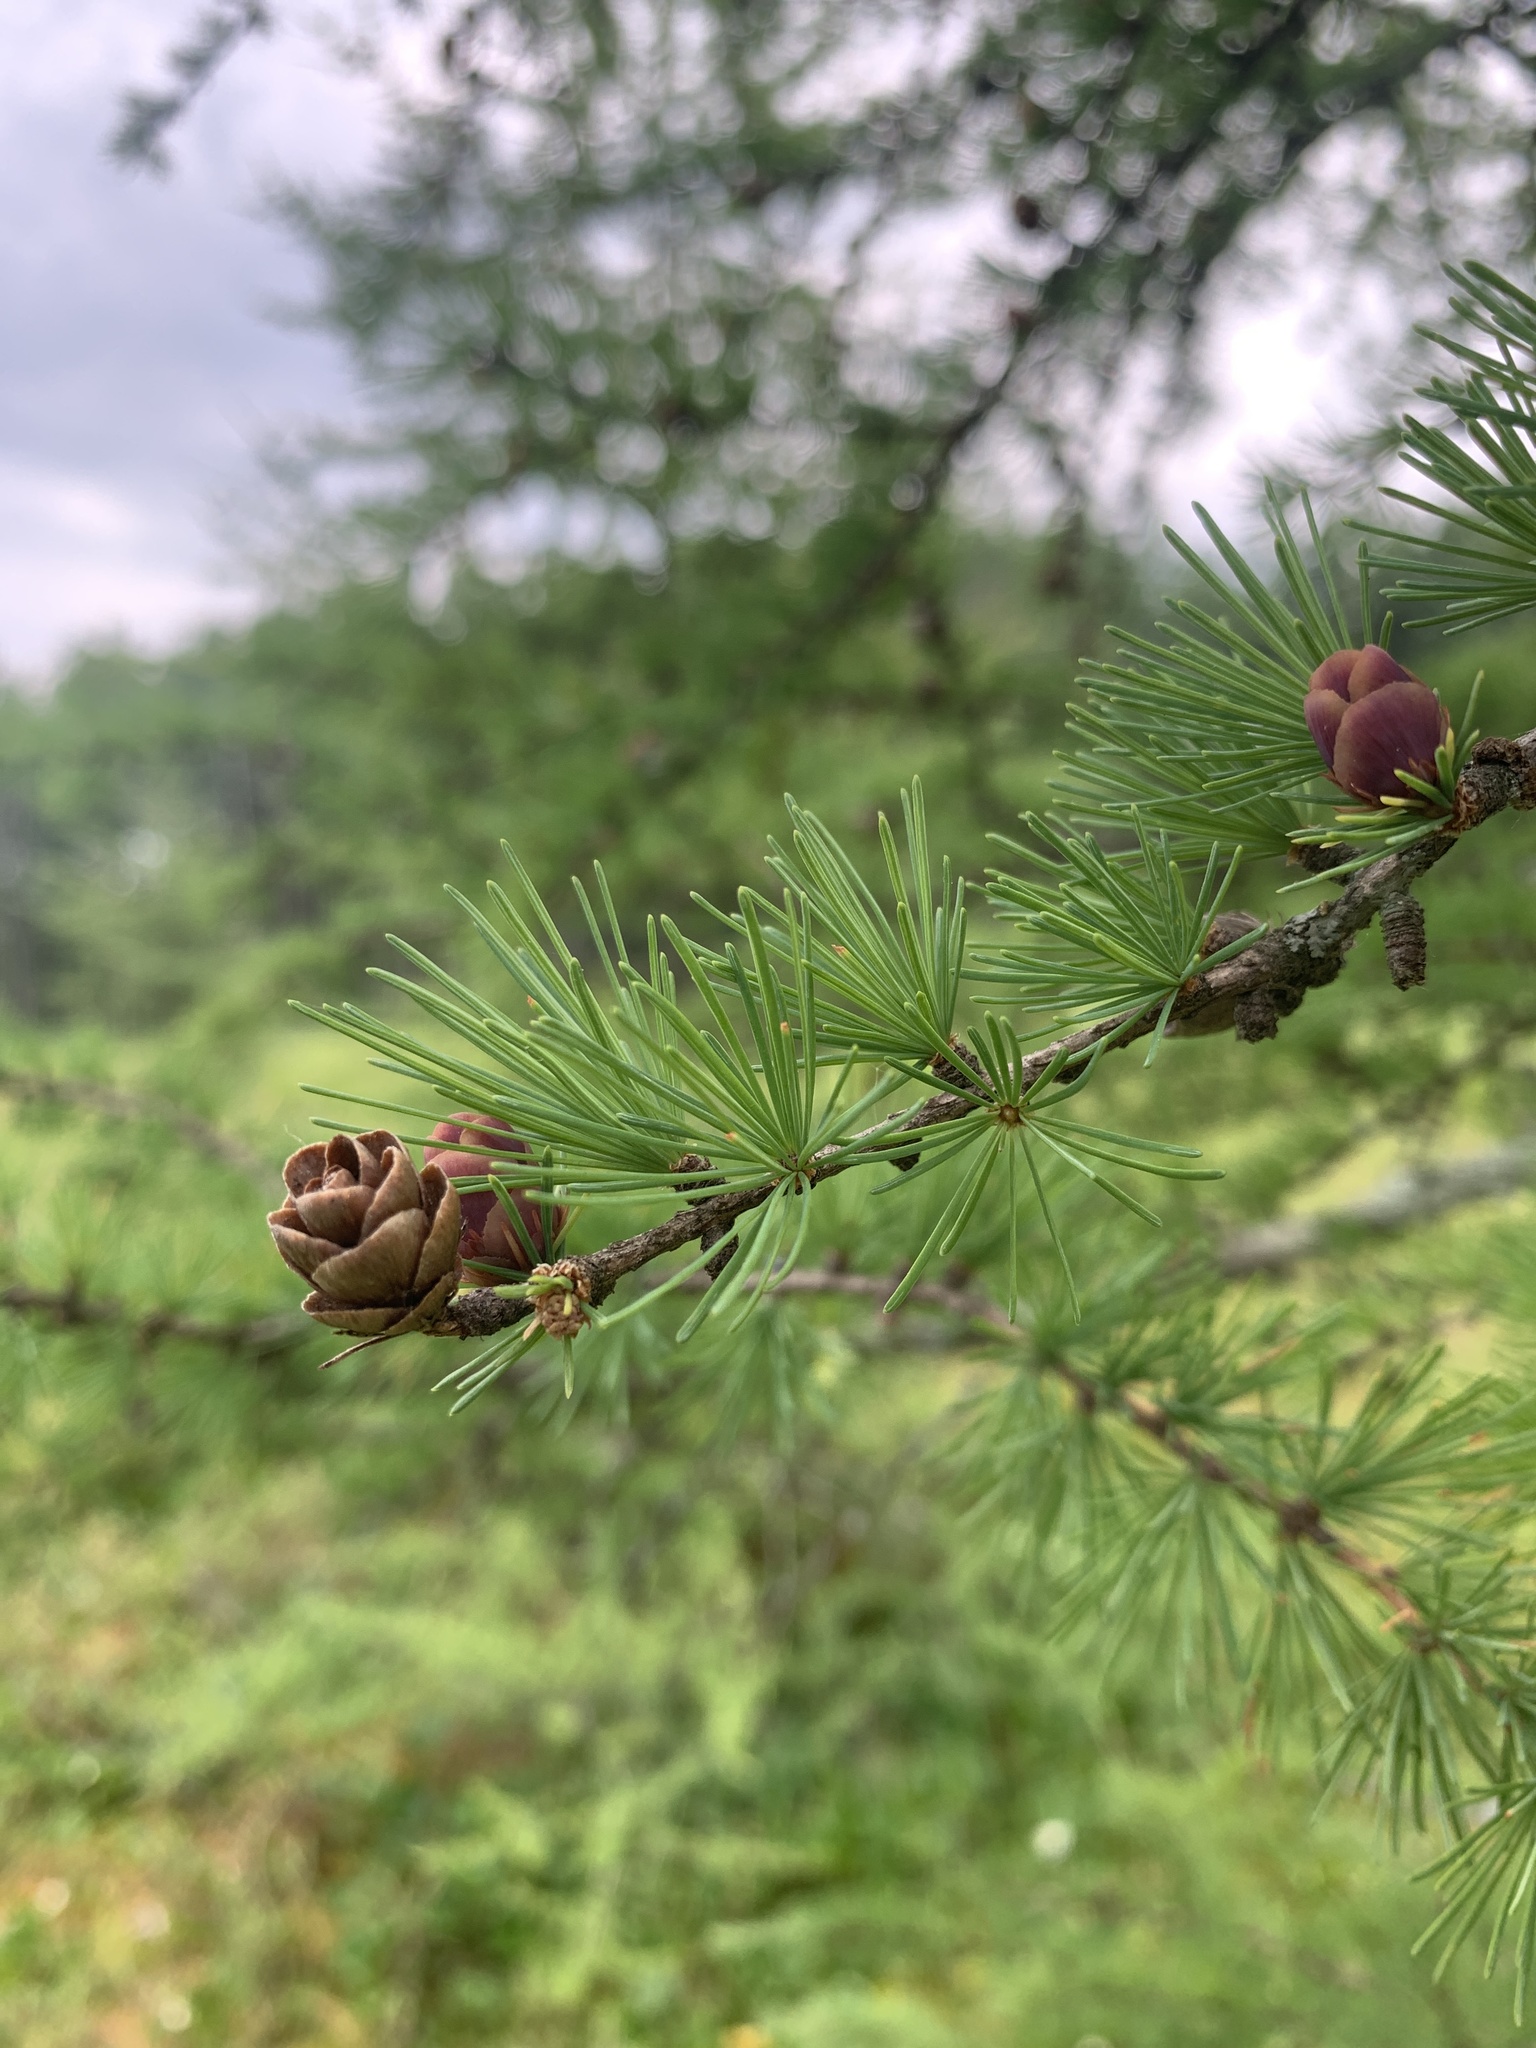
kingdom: Plantae
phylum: Tracheophyta
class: Pinopsida
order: Pinales
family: Pinaceae
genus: Larix
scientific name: Larix laricina
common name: American larch
